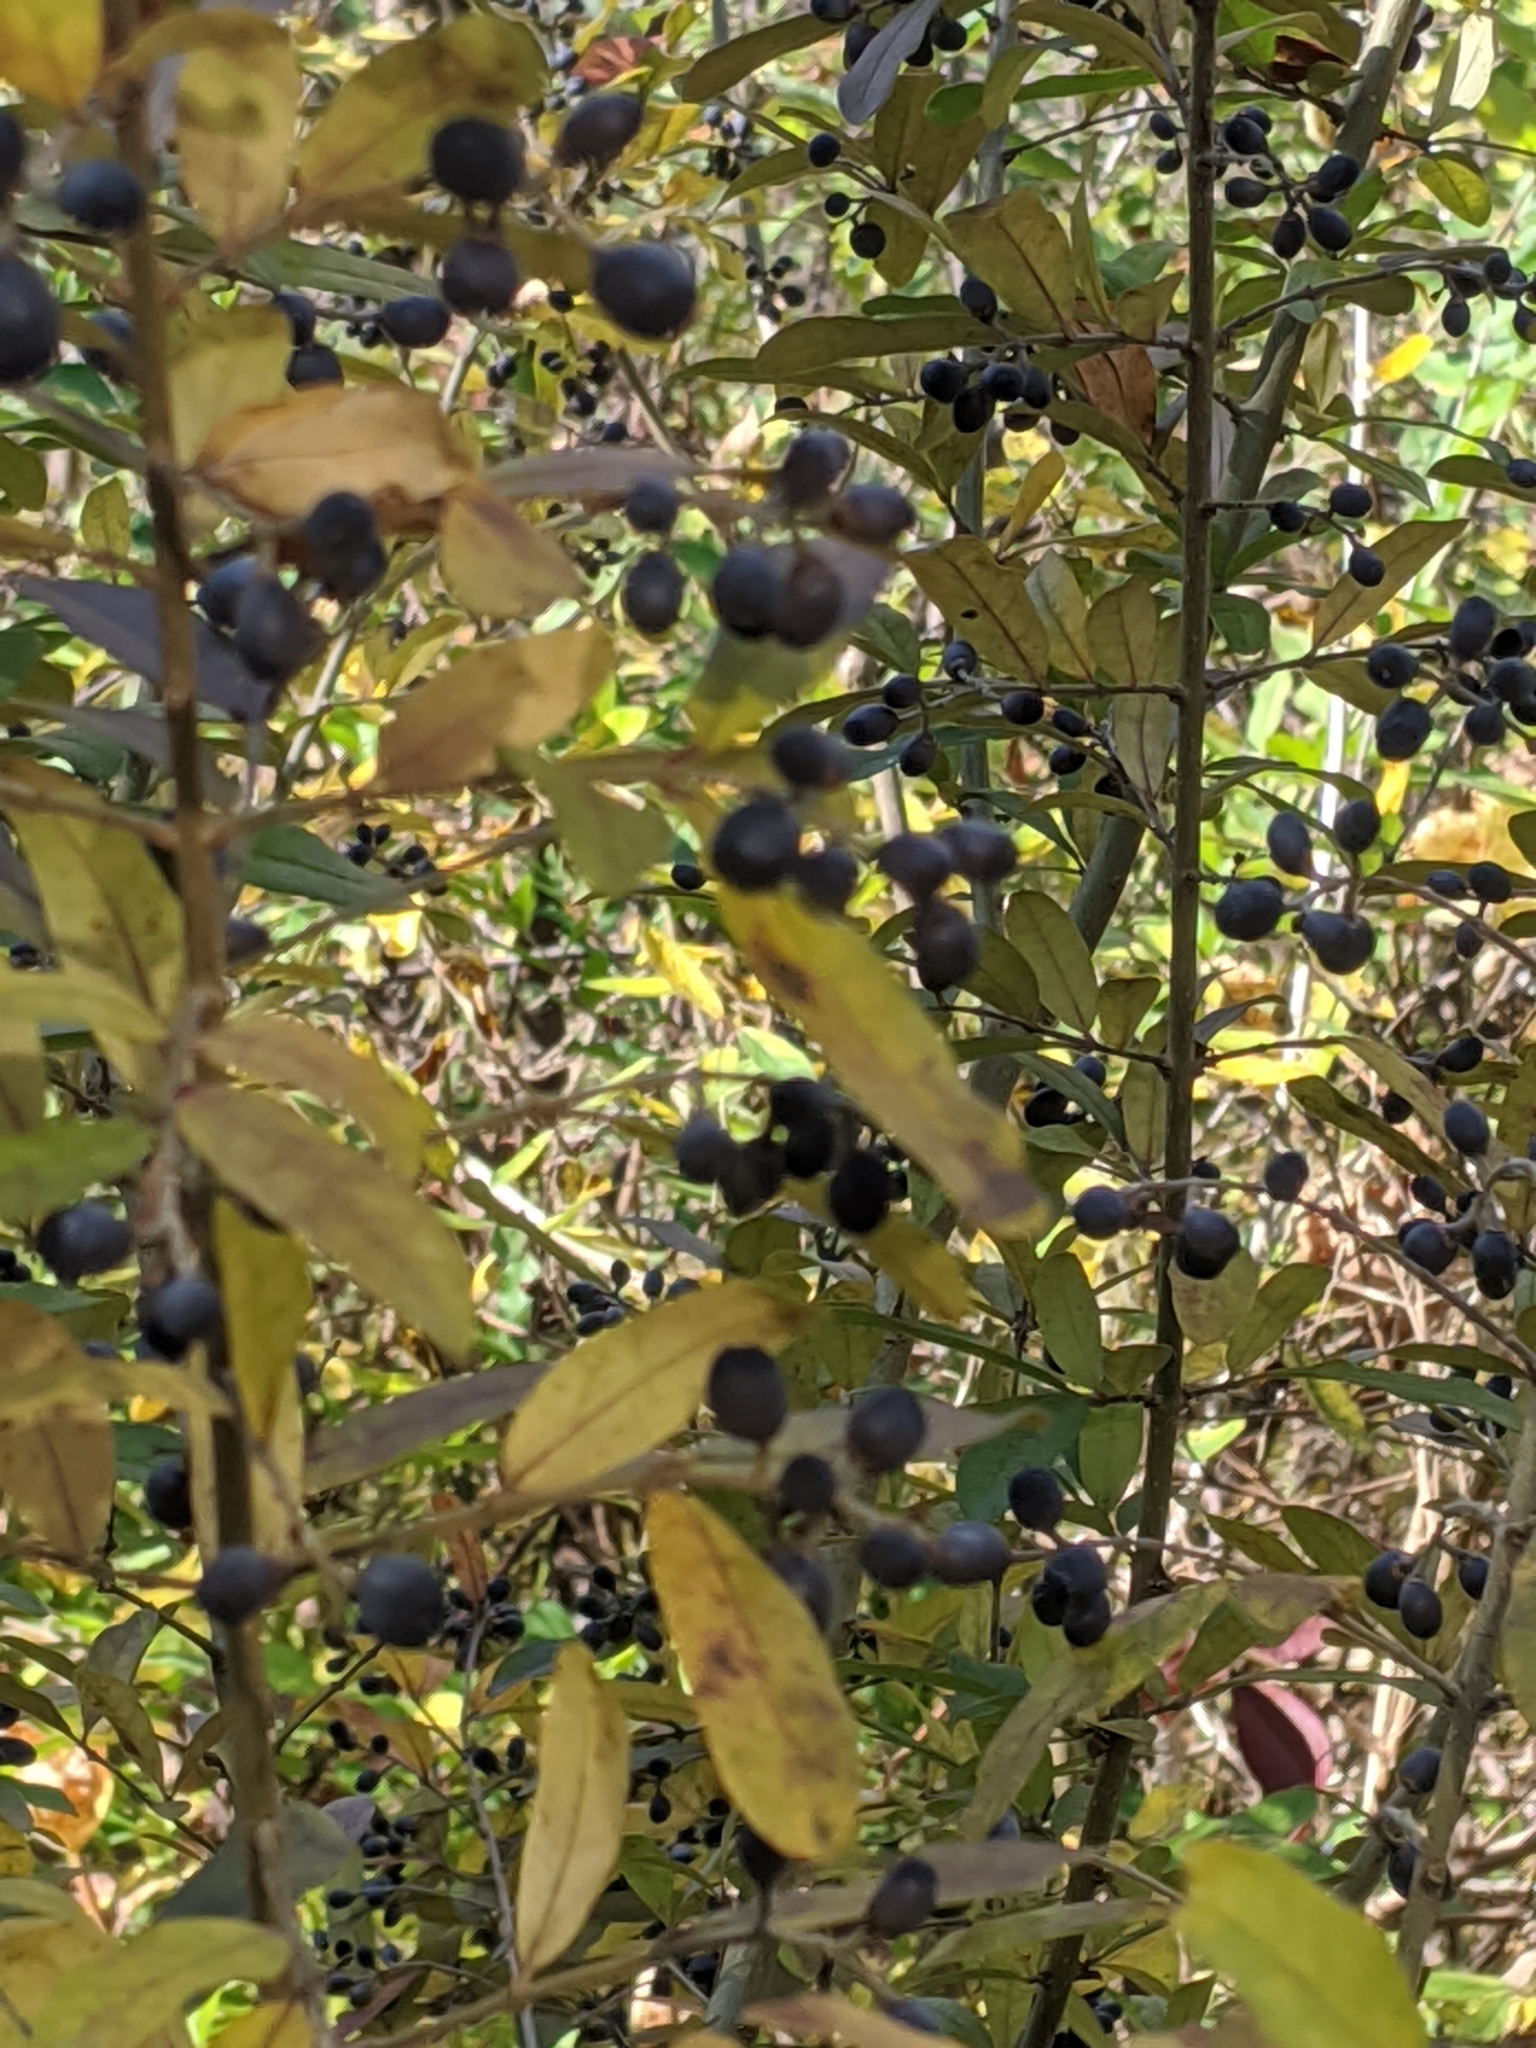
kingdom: Plantae
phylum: Tracheophyta
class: Magnoliopsida
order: Lamiales
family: Oleaceae
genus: Ligustrum
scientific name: Ligustrum obtusifolium
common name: Border privet
